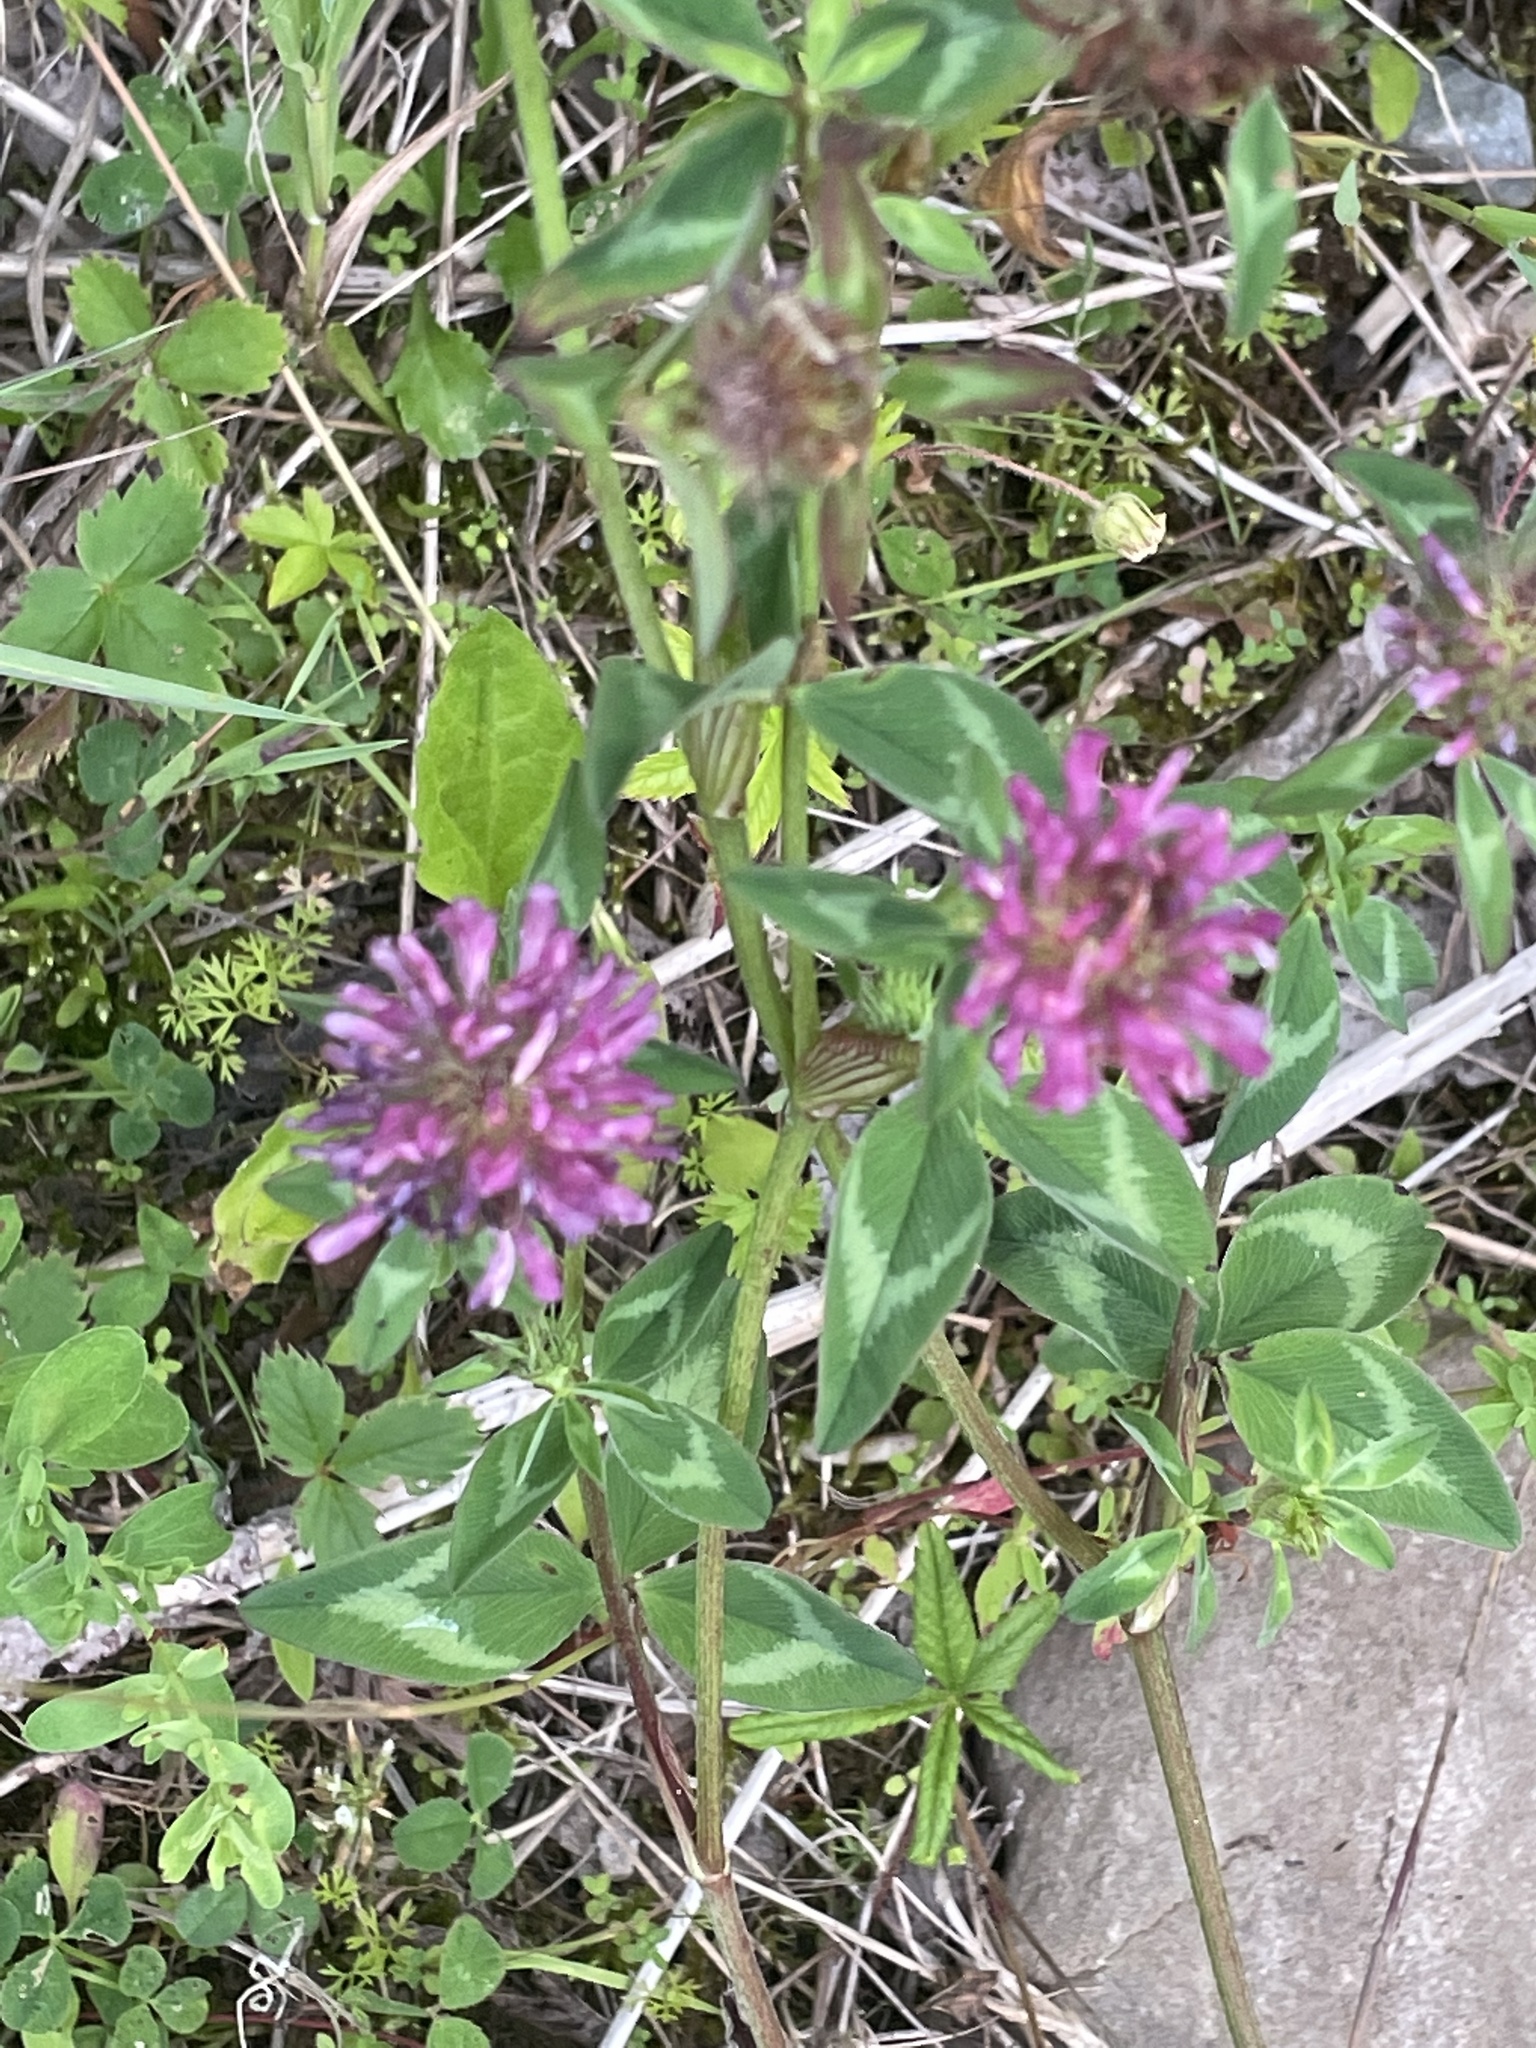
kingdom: Plantae
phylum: Tracheophyta
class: Magnoliopsida
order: Fabales
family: Fabaceae
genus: Trifolium
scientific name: Trifolium pratense
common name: Red clover
